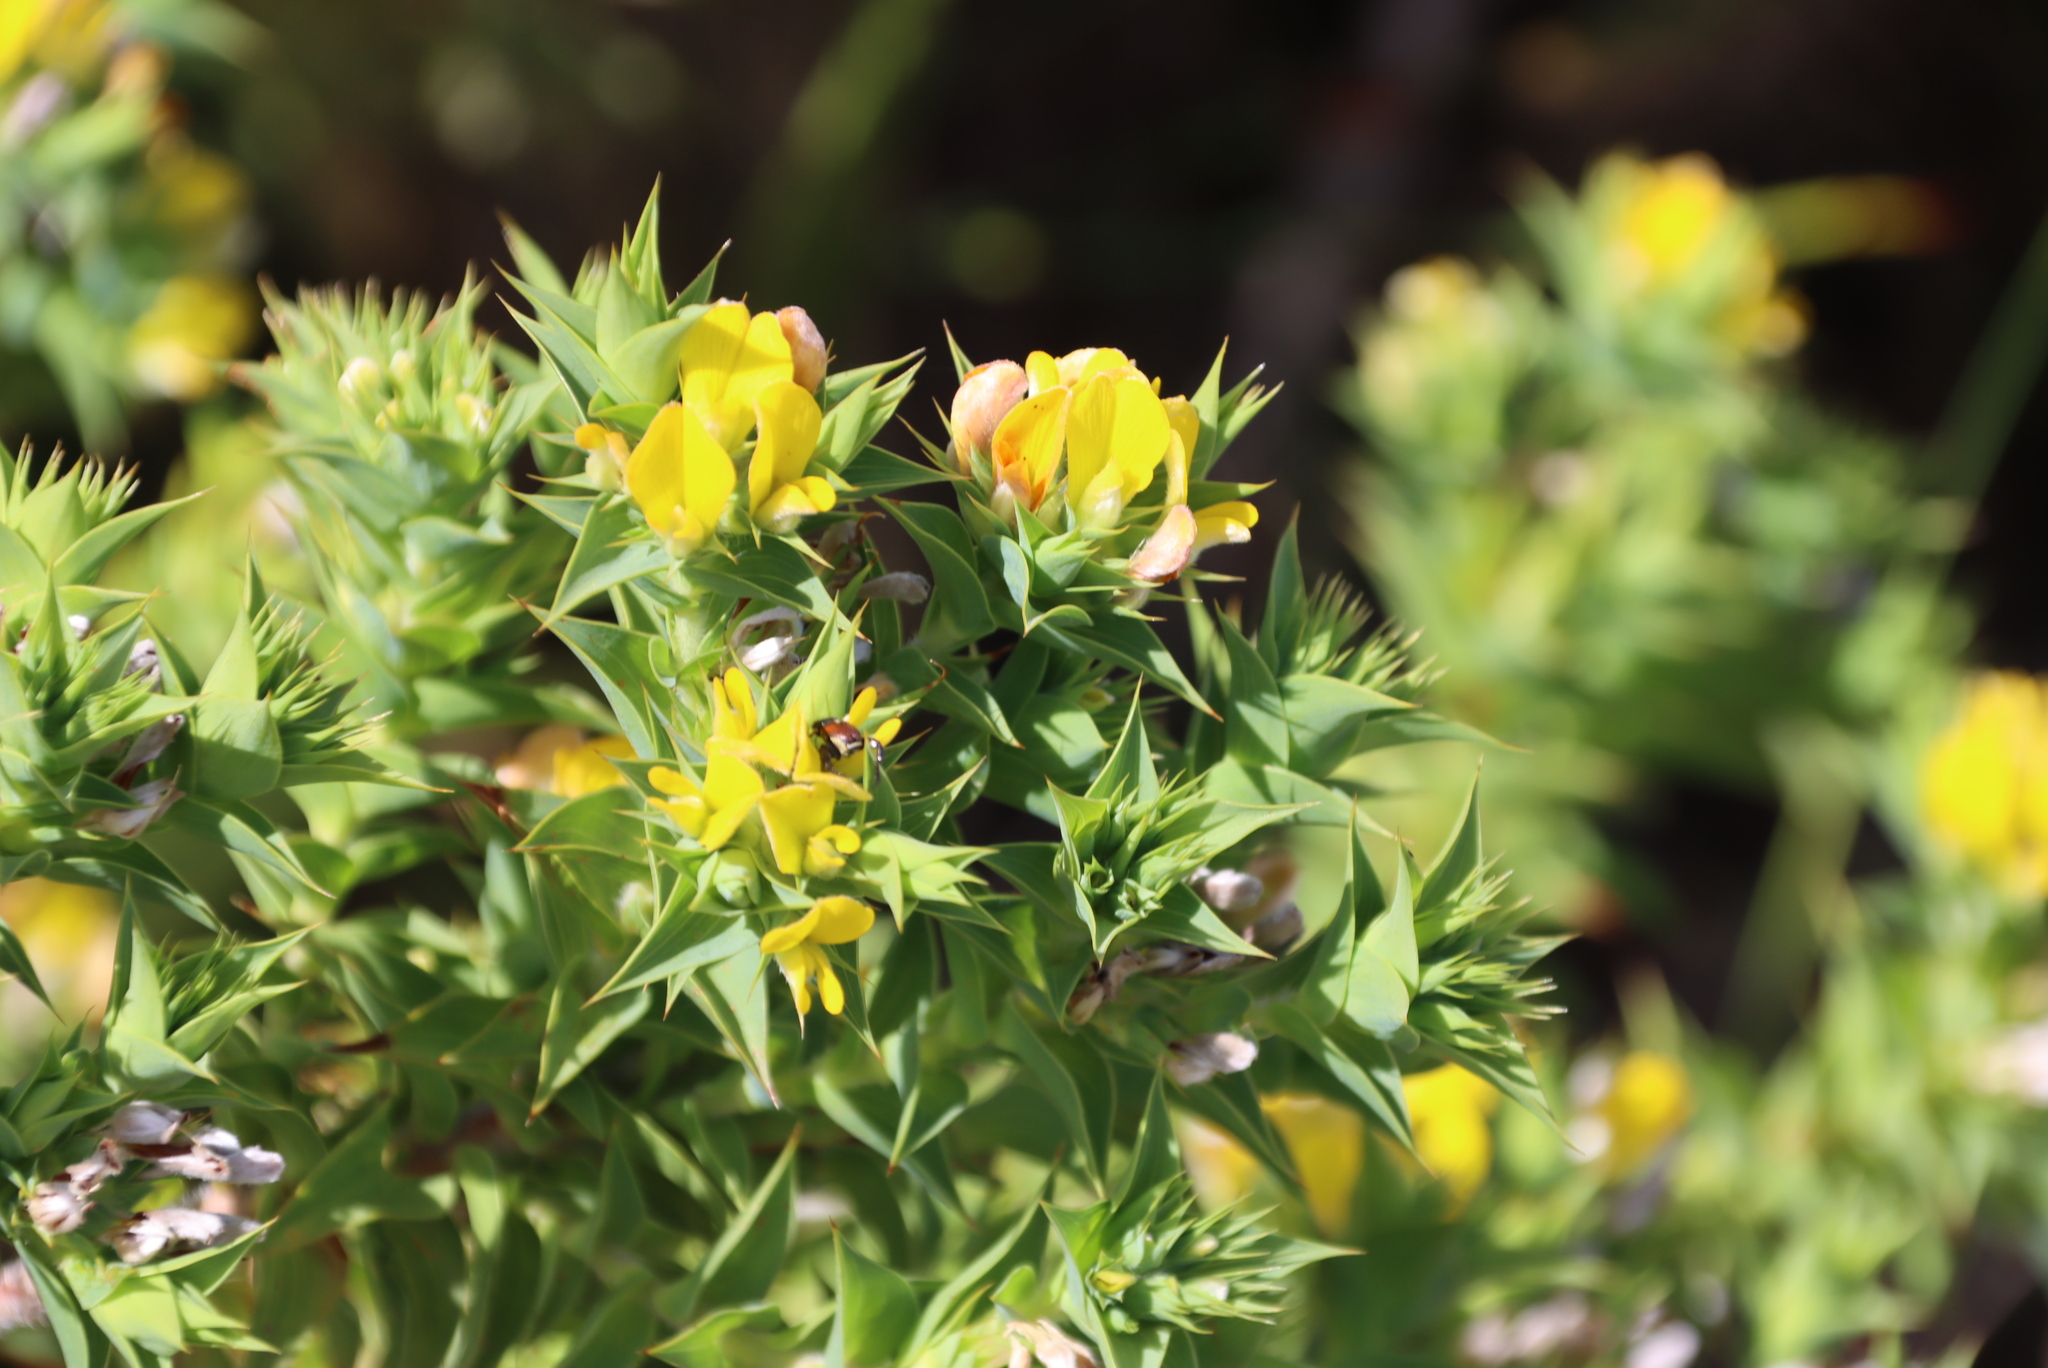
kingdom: Plantae
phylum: Tracheophyta
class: Magnoliopsida
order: Fabales
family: Fabaceae
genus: Aspalathus
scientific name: Aspalathus cordata
